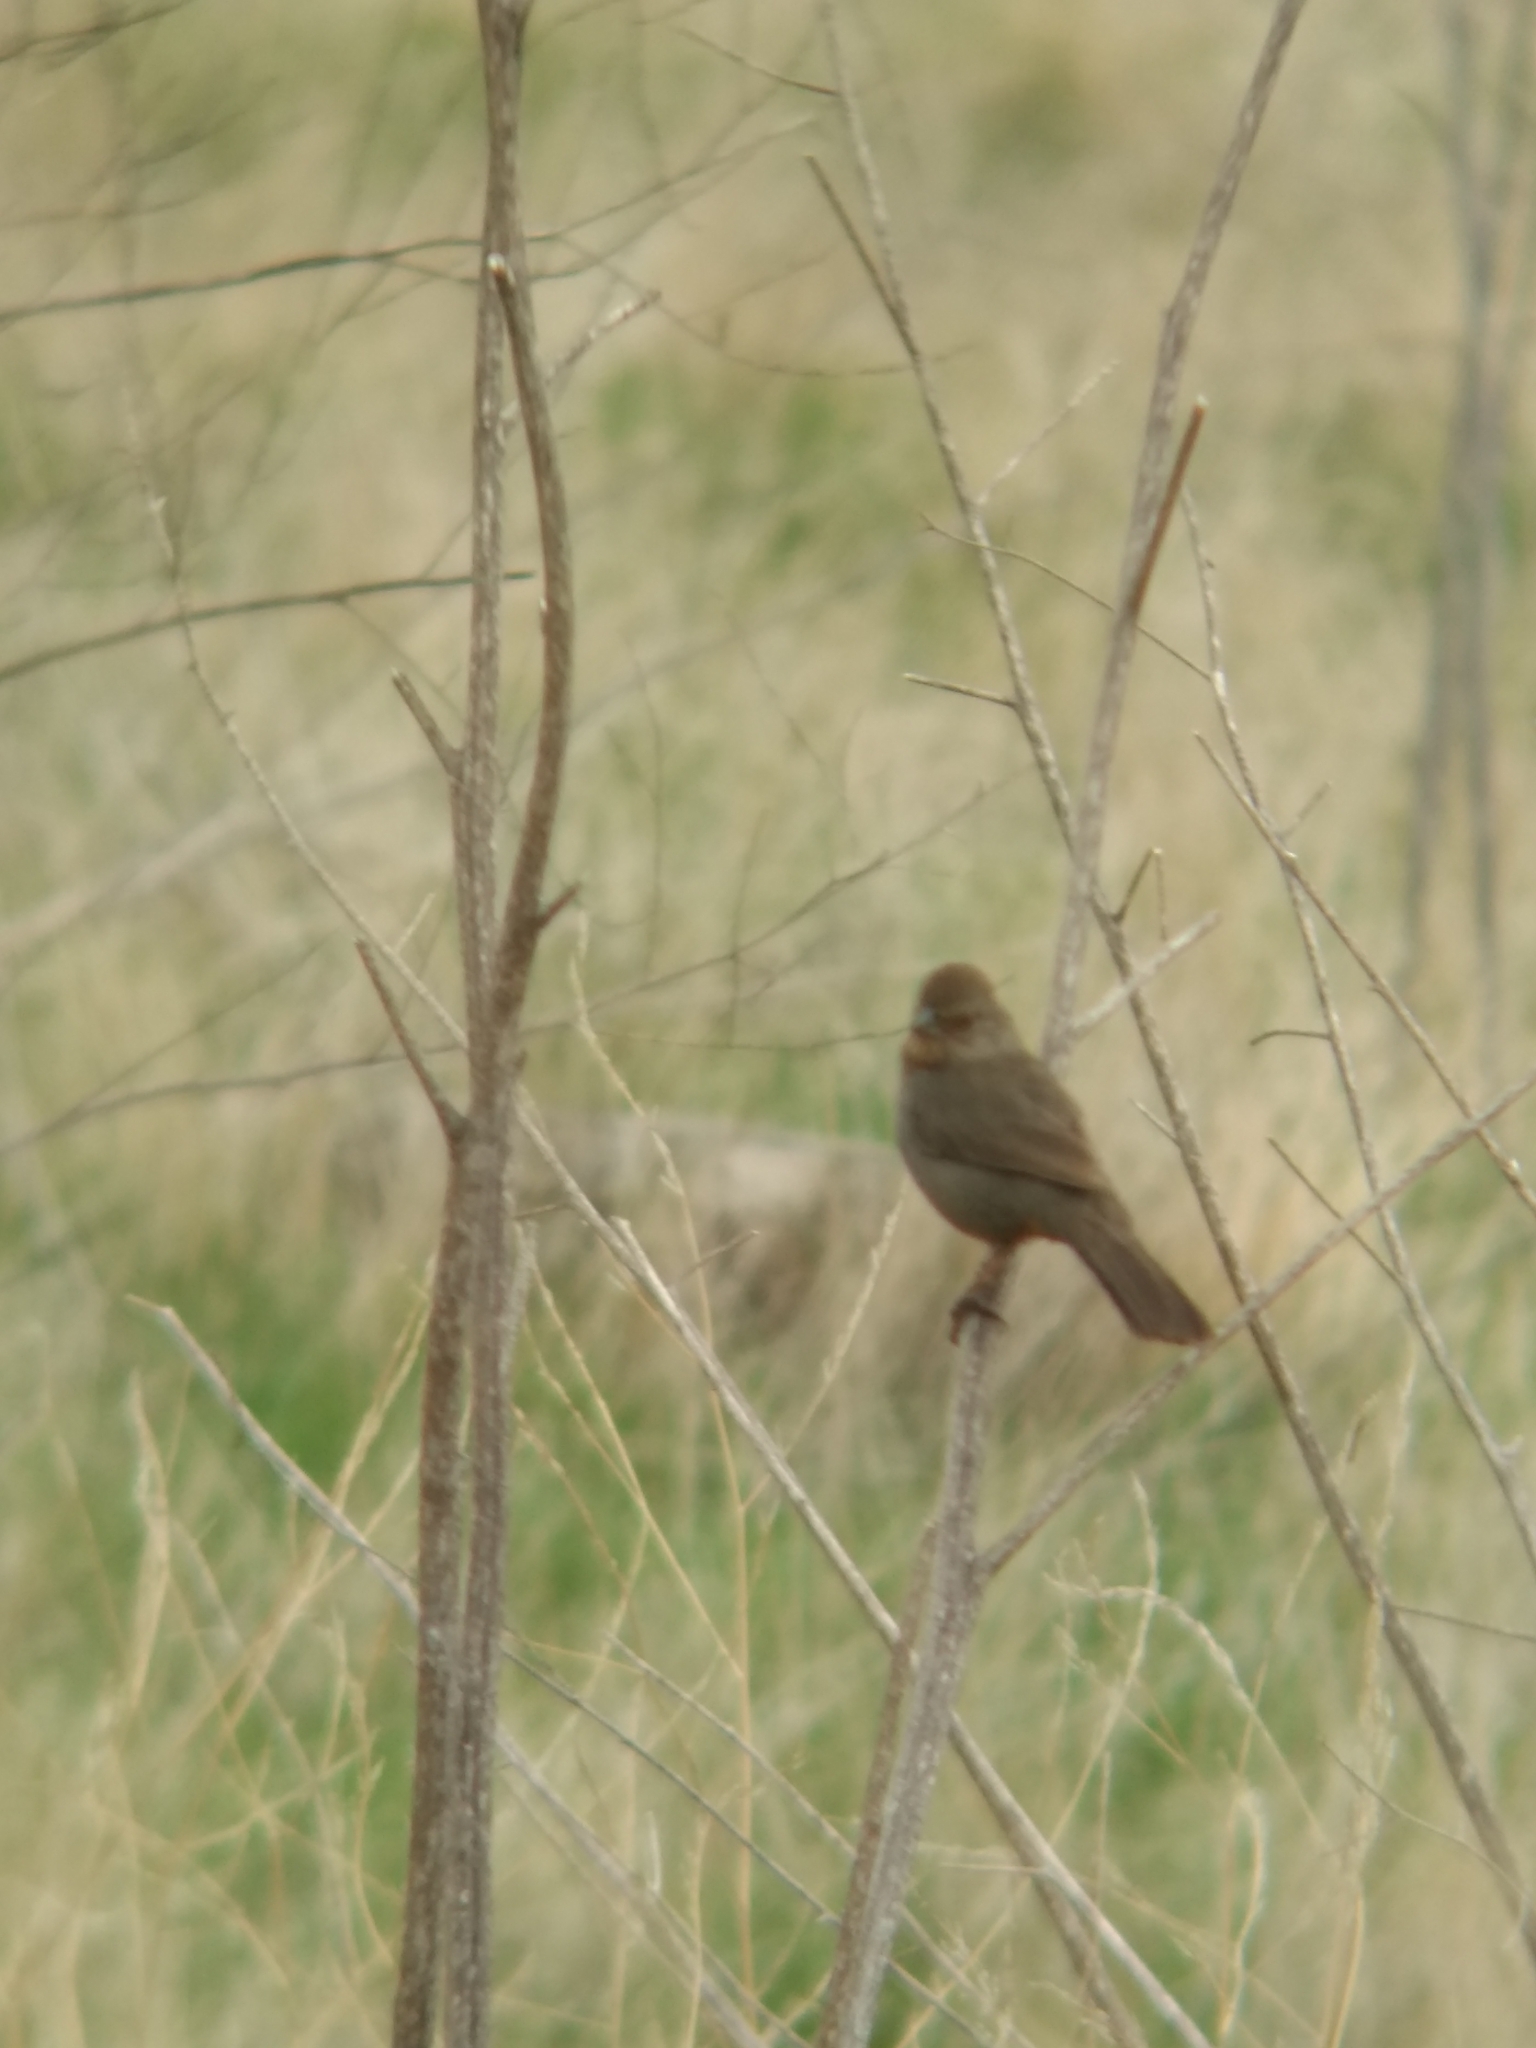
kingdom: Animalia
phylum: Chordata
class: Aves
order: Passeriformes
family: Passerellidae
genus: Melozone
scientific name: Melozone crissalis
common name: California towhee
